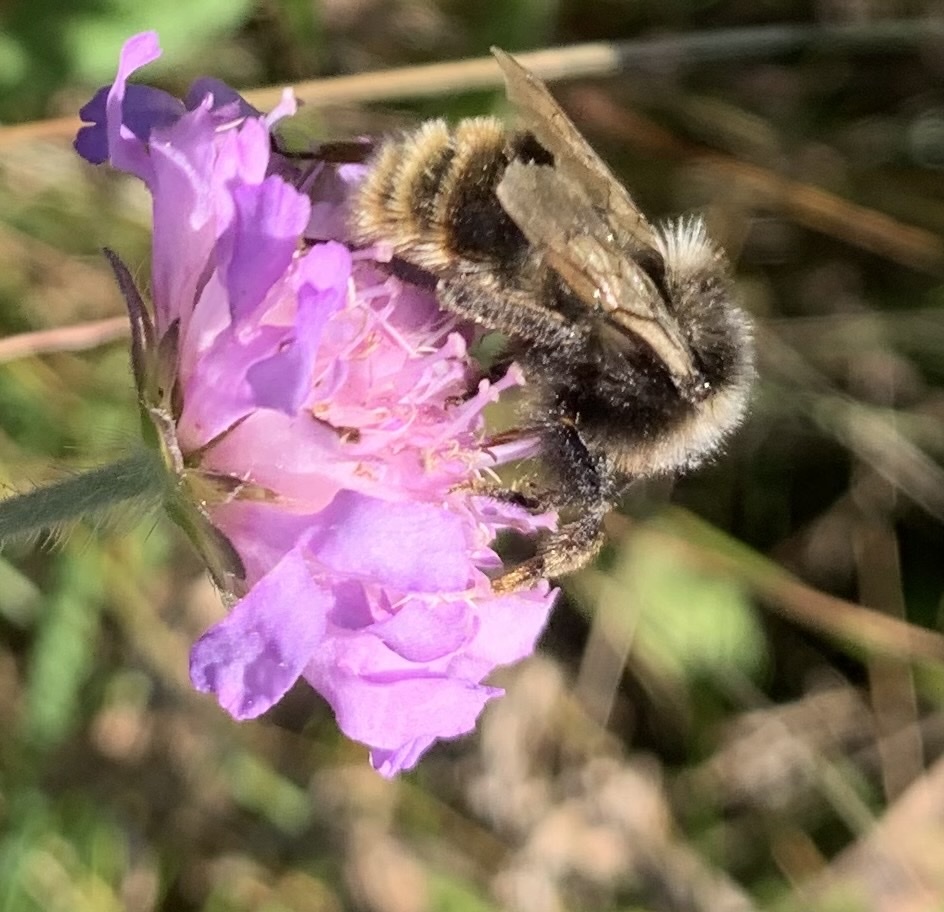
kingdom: Animalia
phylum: Arthropoda
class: Insecta
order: Hymenoptera
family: Apidae
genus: Bombus
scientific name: Bombus rupestris
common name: Hill cuckoo-bee
